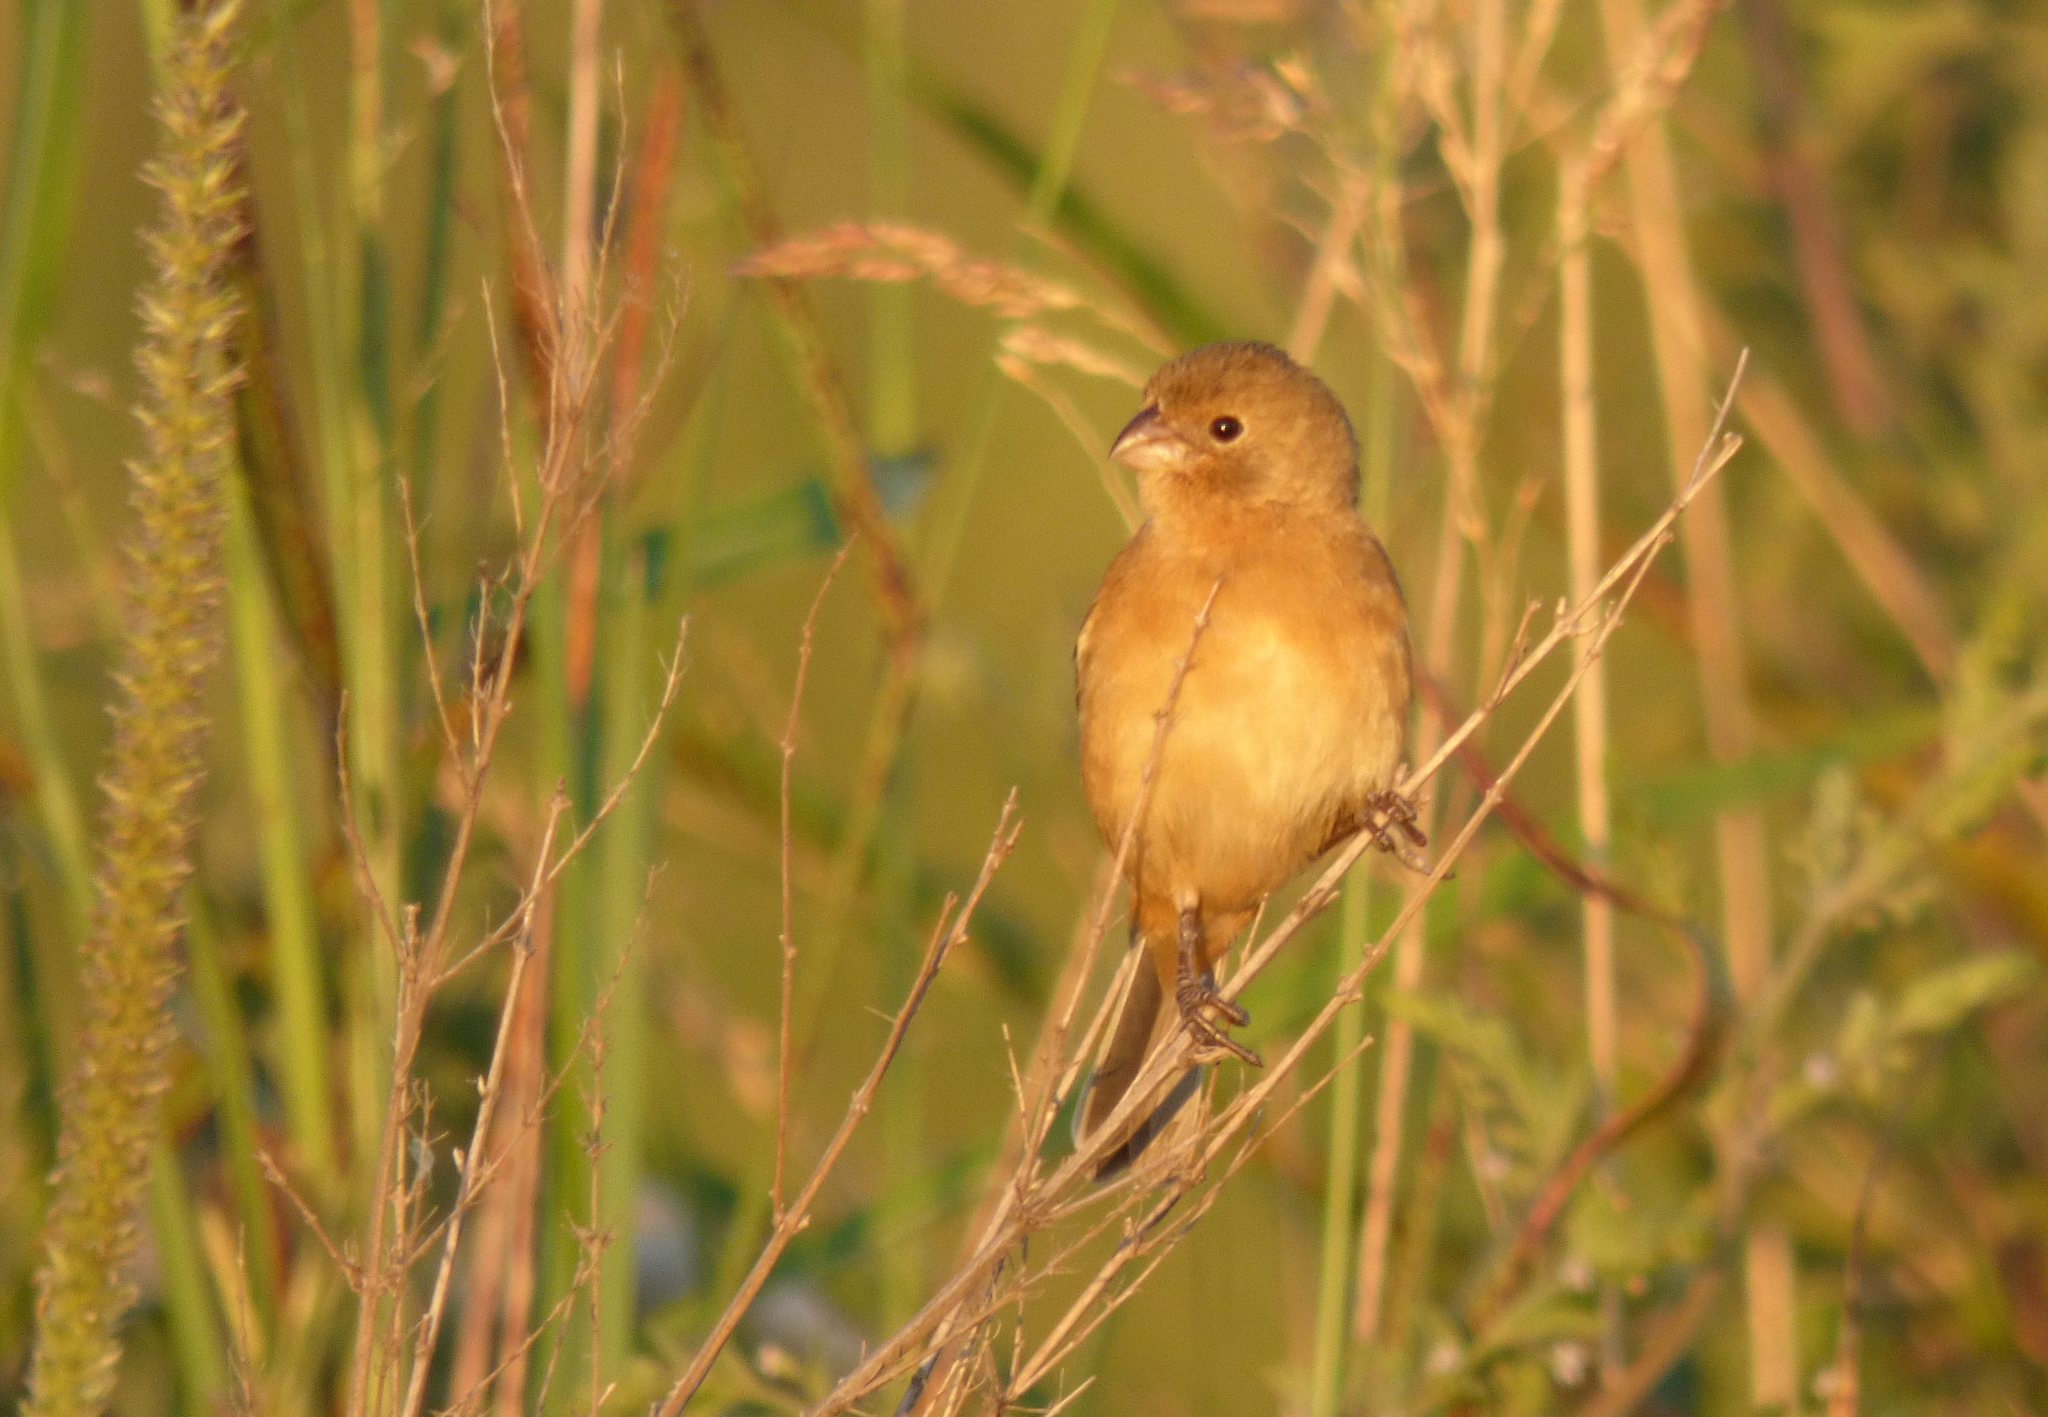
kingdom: Animalia
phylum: Chordata
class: Aves
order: Passeriformes
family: Thraupidae
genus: Sporophila
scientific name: Sporophila ruficollis
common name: Dark-throated seedeater
